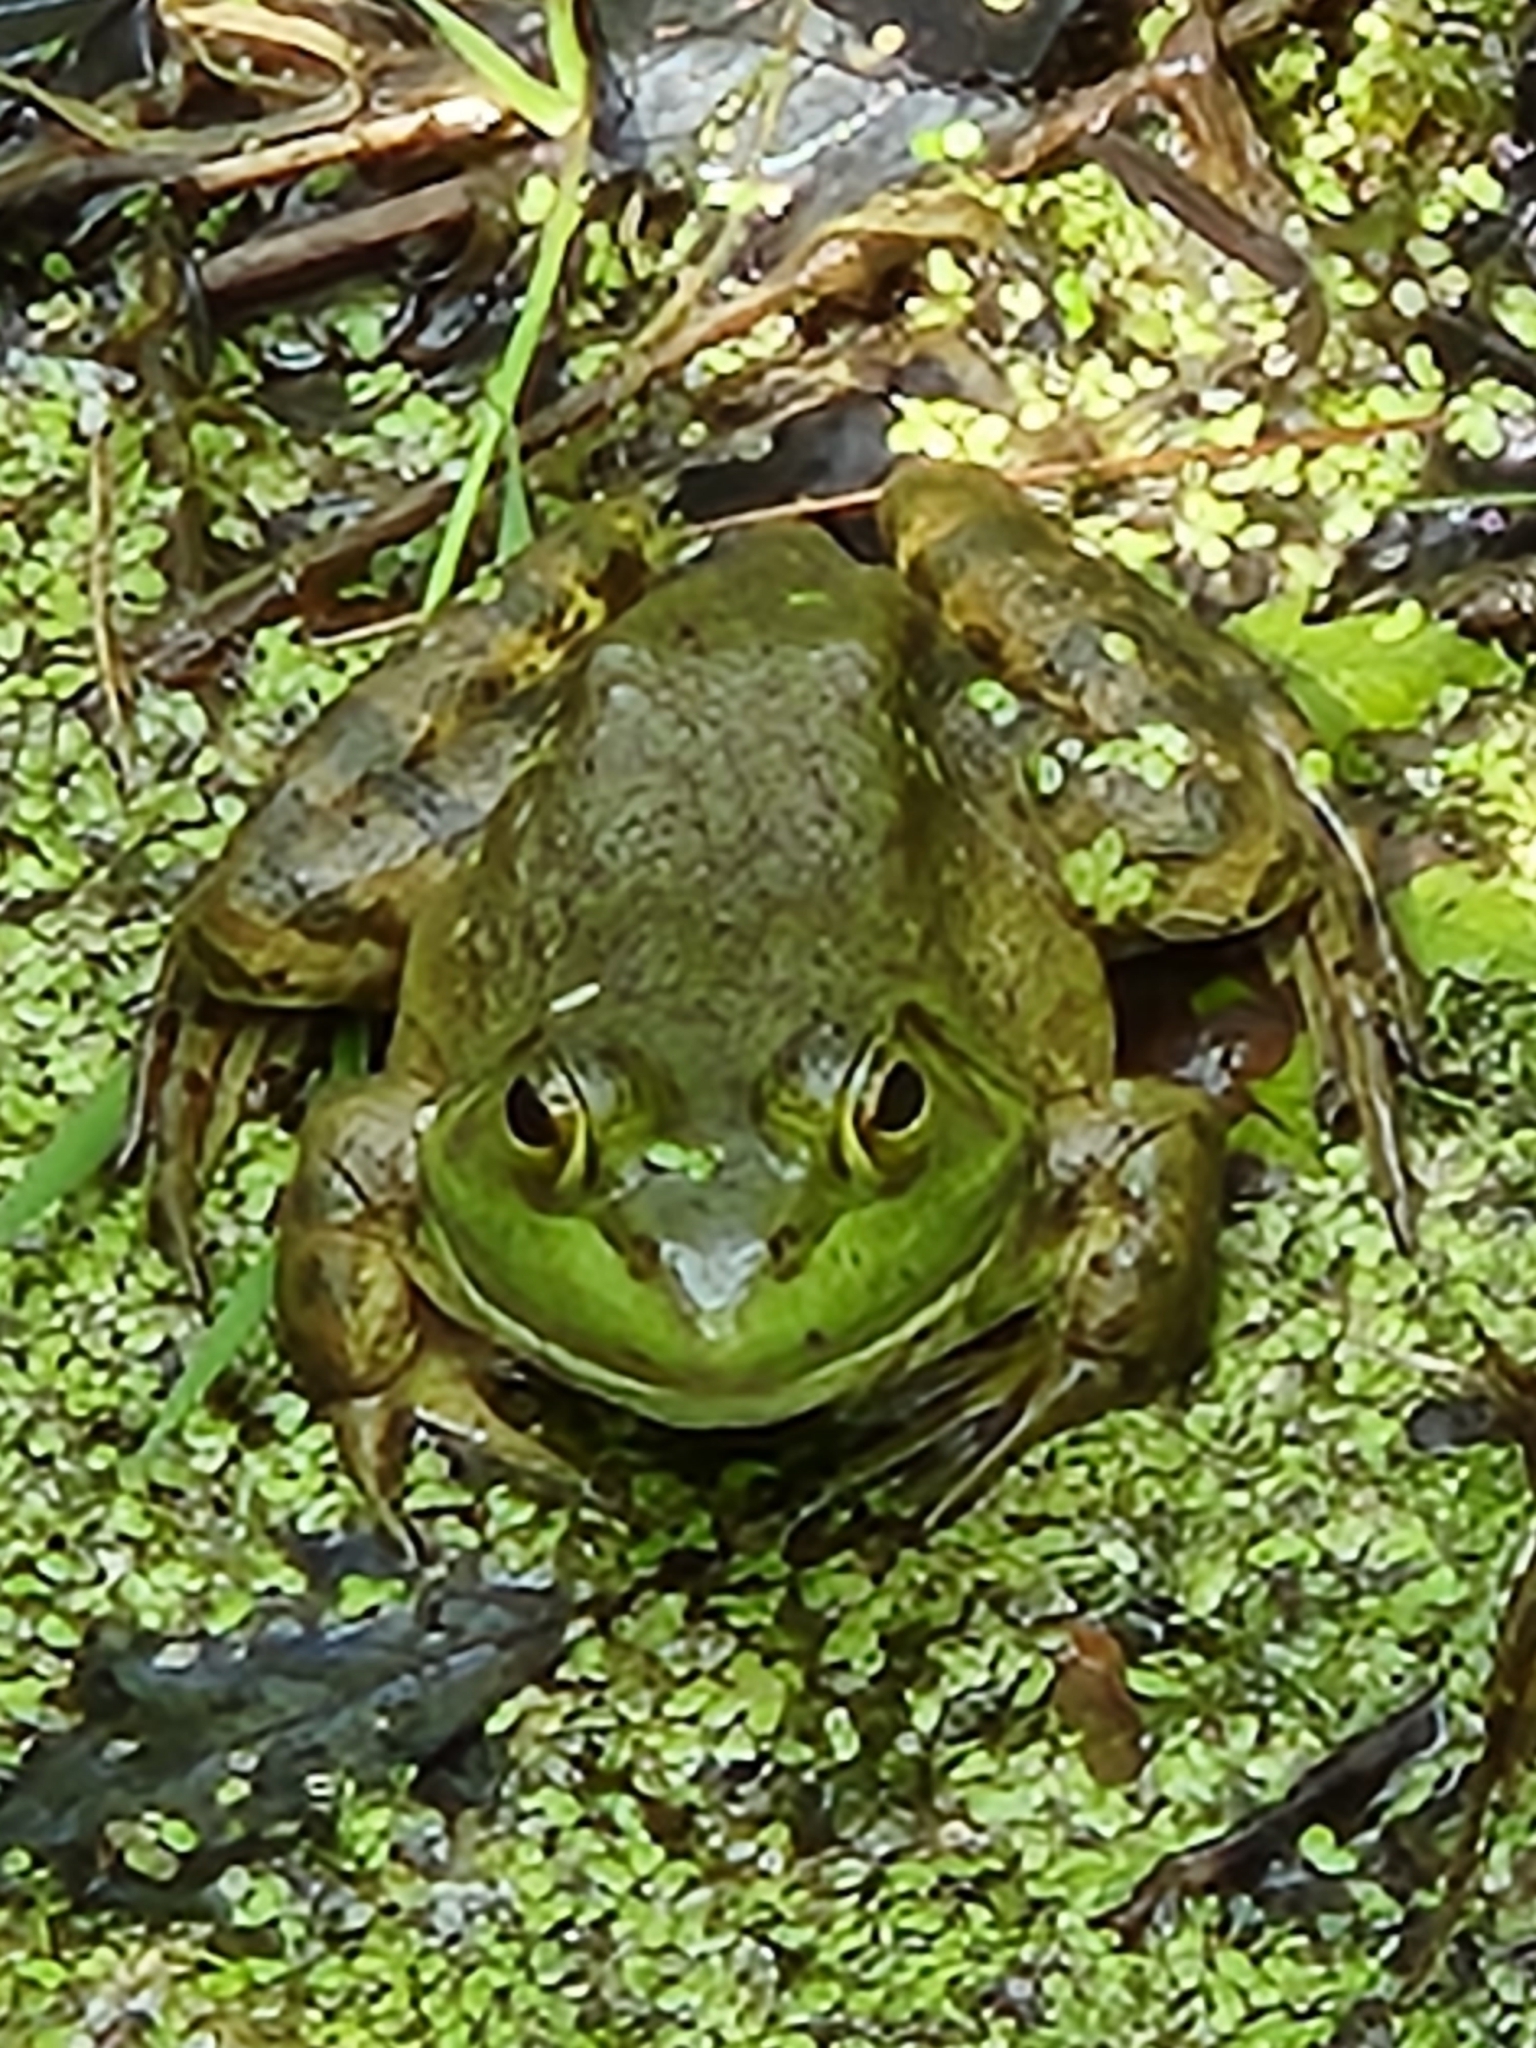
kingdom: Animalia
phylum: Chordata
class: Amphibia
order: Anura
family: Ranidae
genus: Lithobates
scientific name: Lithobates catesbeianus
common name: American bullfrog
